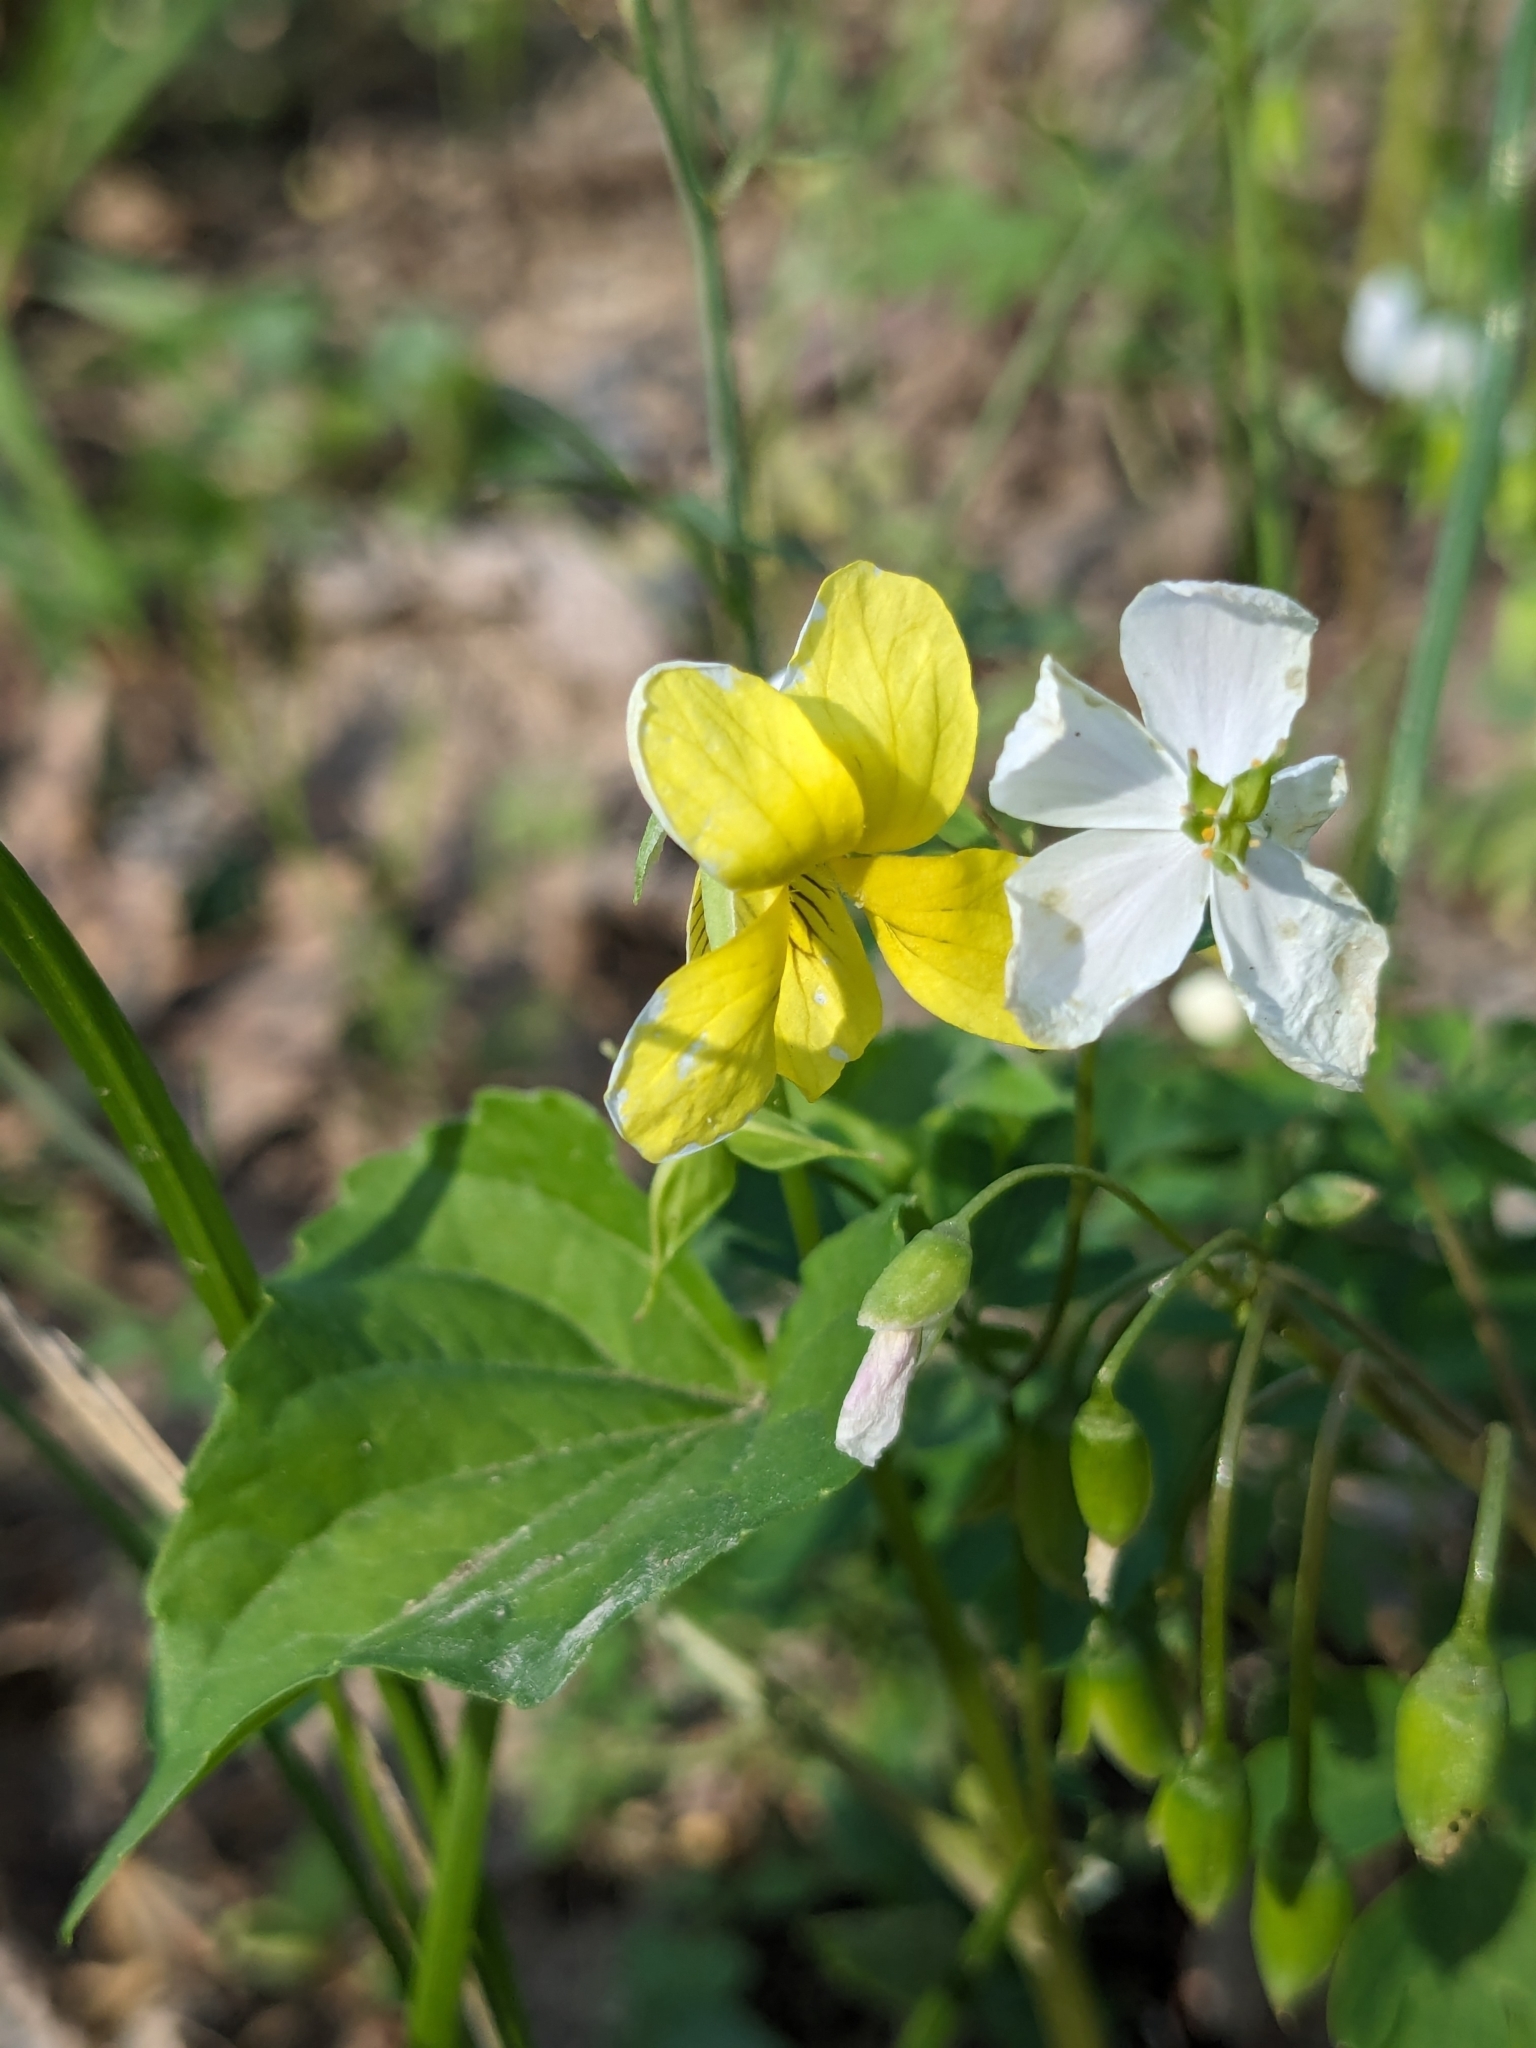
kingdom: Plantae
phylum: Tracheophyta
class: Magnoliopsida
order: Malpighiales
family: Violaceae
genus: Viola
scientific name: Viola eriocarpa
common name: Smooth yellow violet
